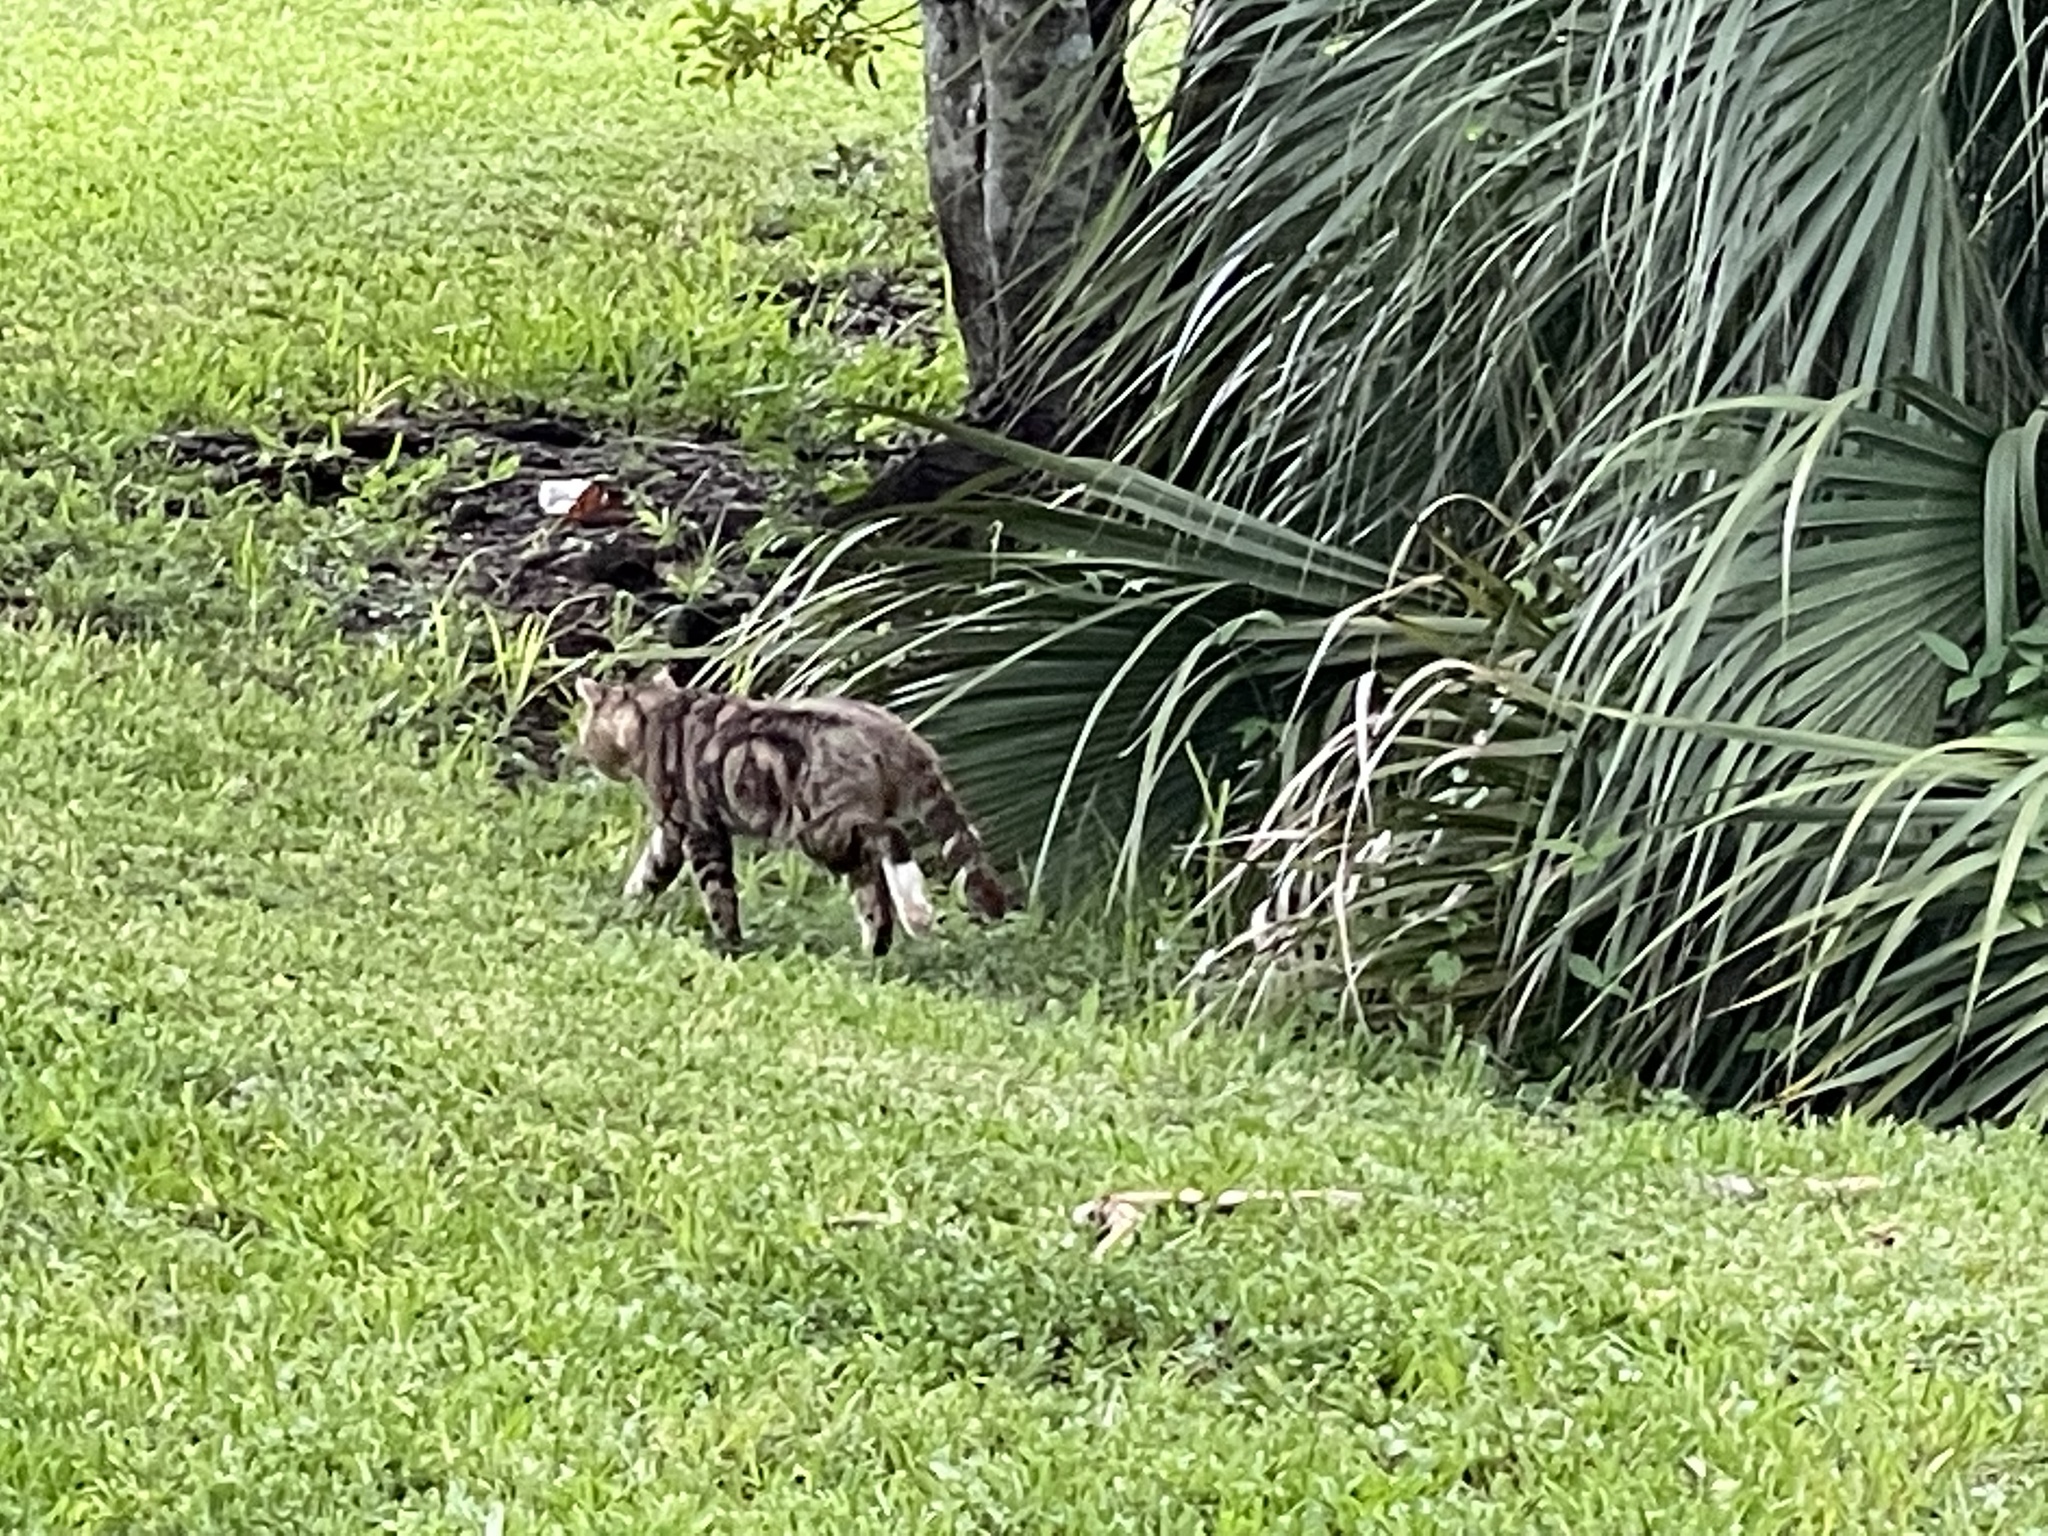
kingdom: Animalia
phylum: Chordata
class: Mammalia
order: Carnivora
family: Felidae
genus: Felis
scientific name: Felis catus
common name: Domestic cat
